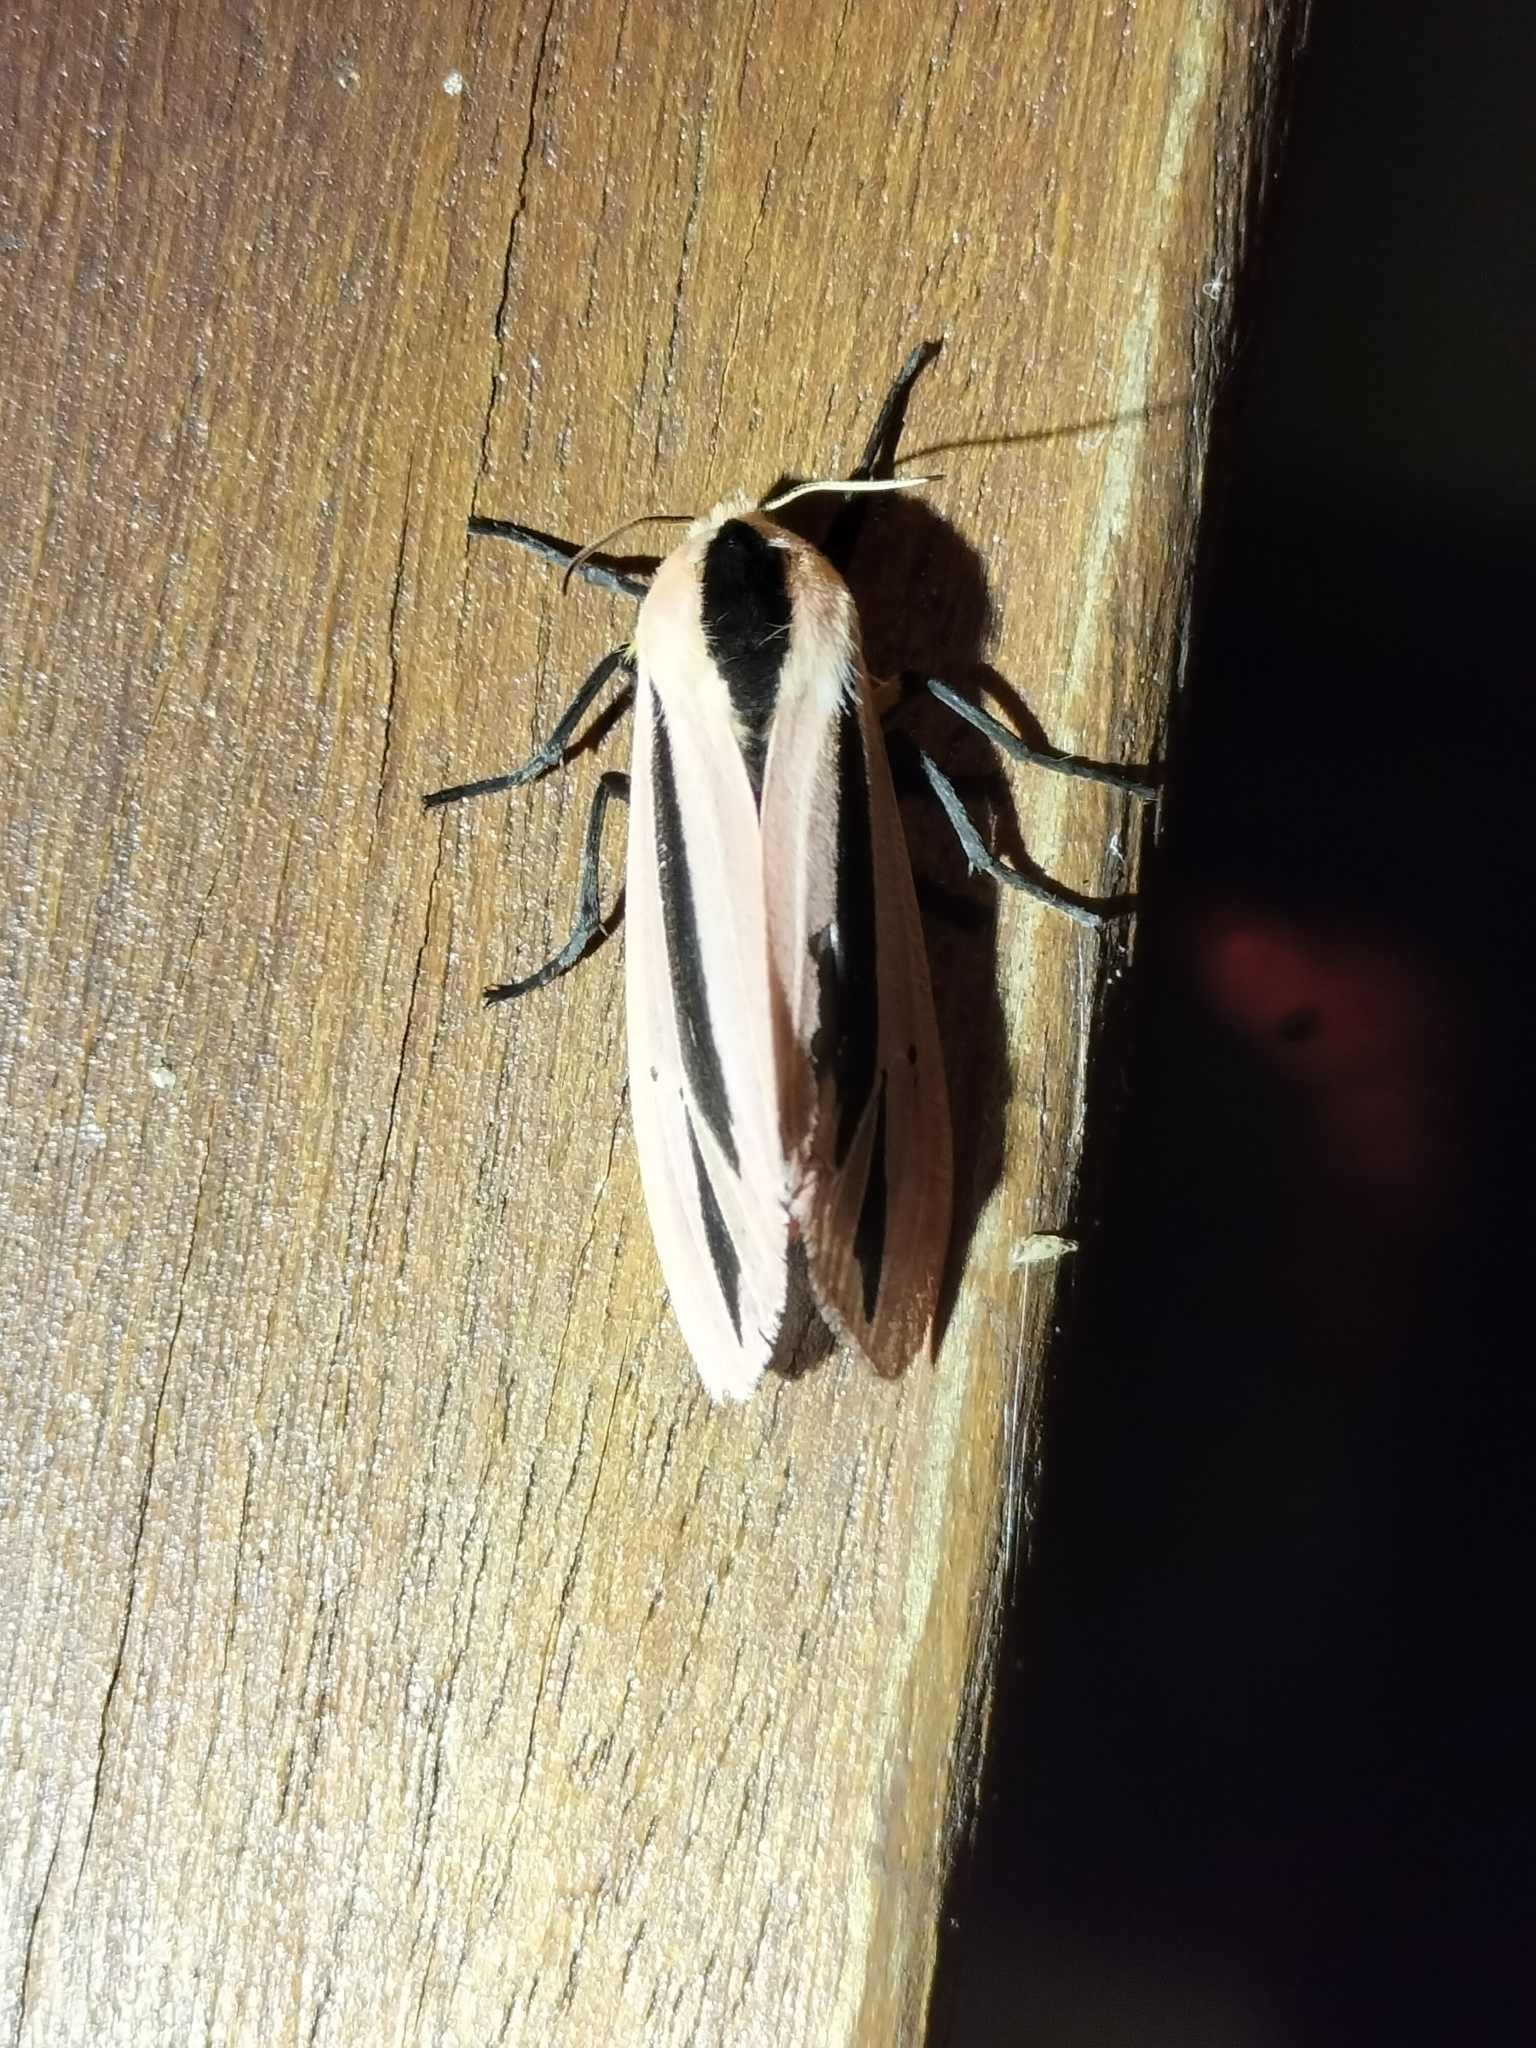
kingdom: Animalia
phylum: Arthropoda
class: Insecta
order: Lepidoptera
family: Erebidae
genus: Creatonotos
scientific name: Creatonotos gangis
